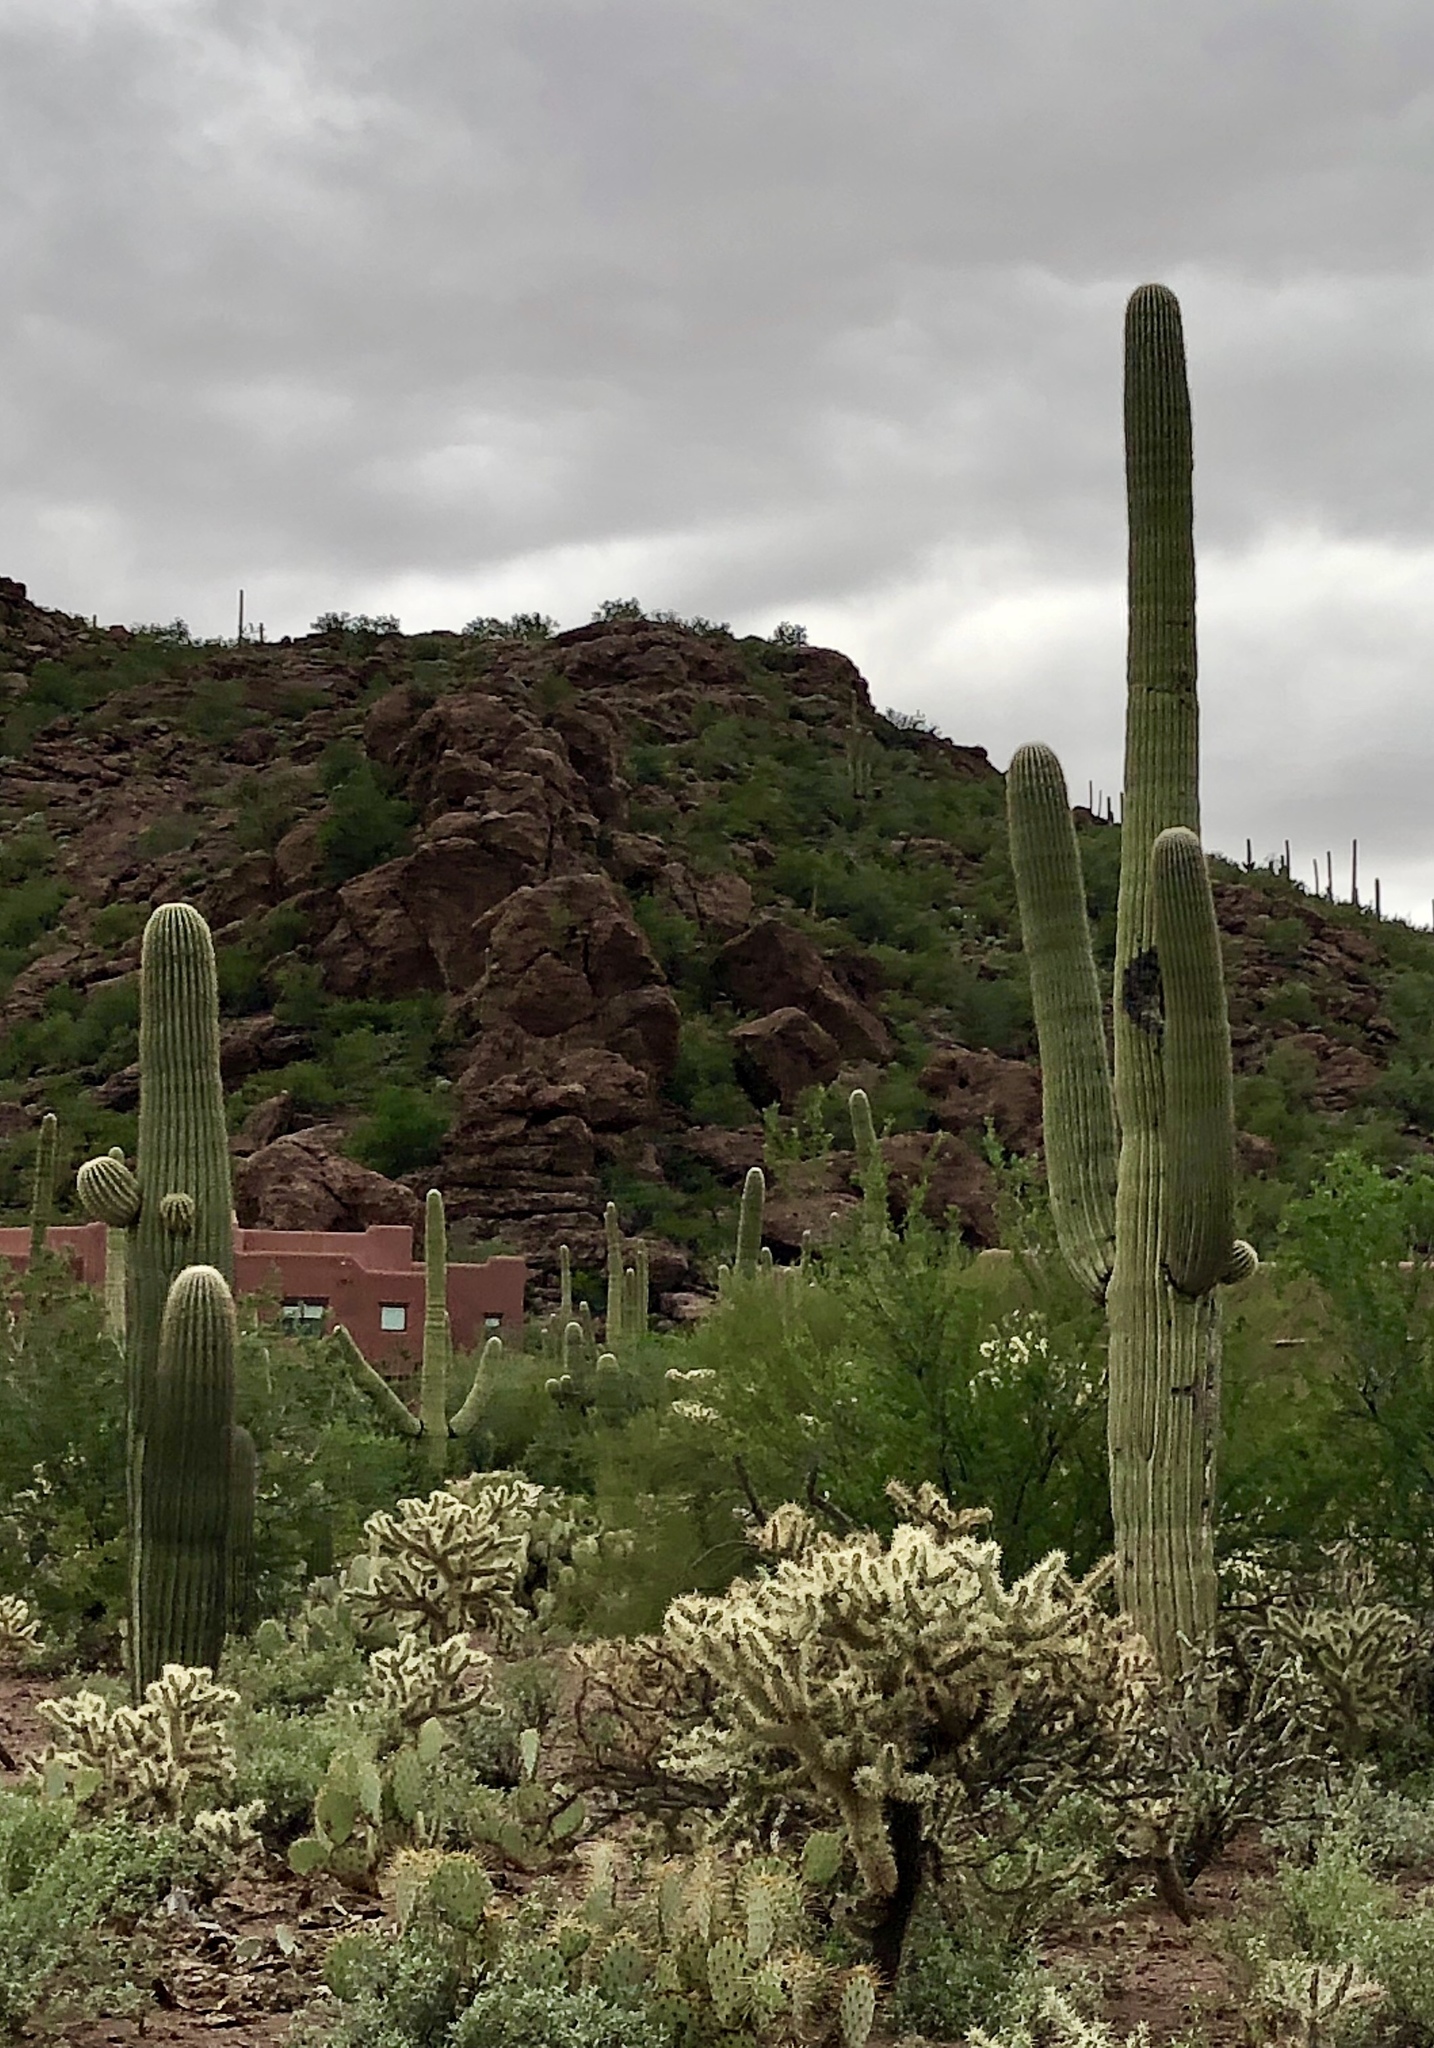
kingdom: Plantae
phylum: Tracheophyta
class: Magnoliopsida
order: Caryophyllales
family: Cactaceae
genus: Carnegiea
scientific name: Carnegiea gigantea
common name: Saguaro
